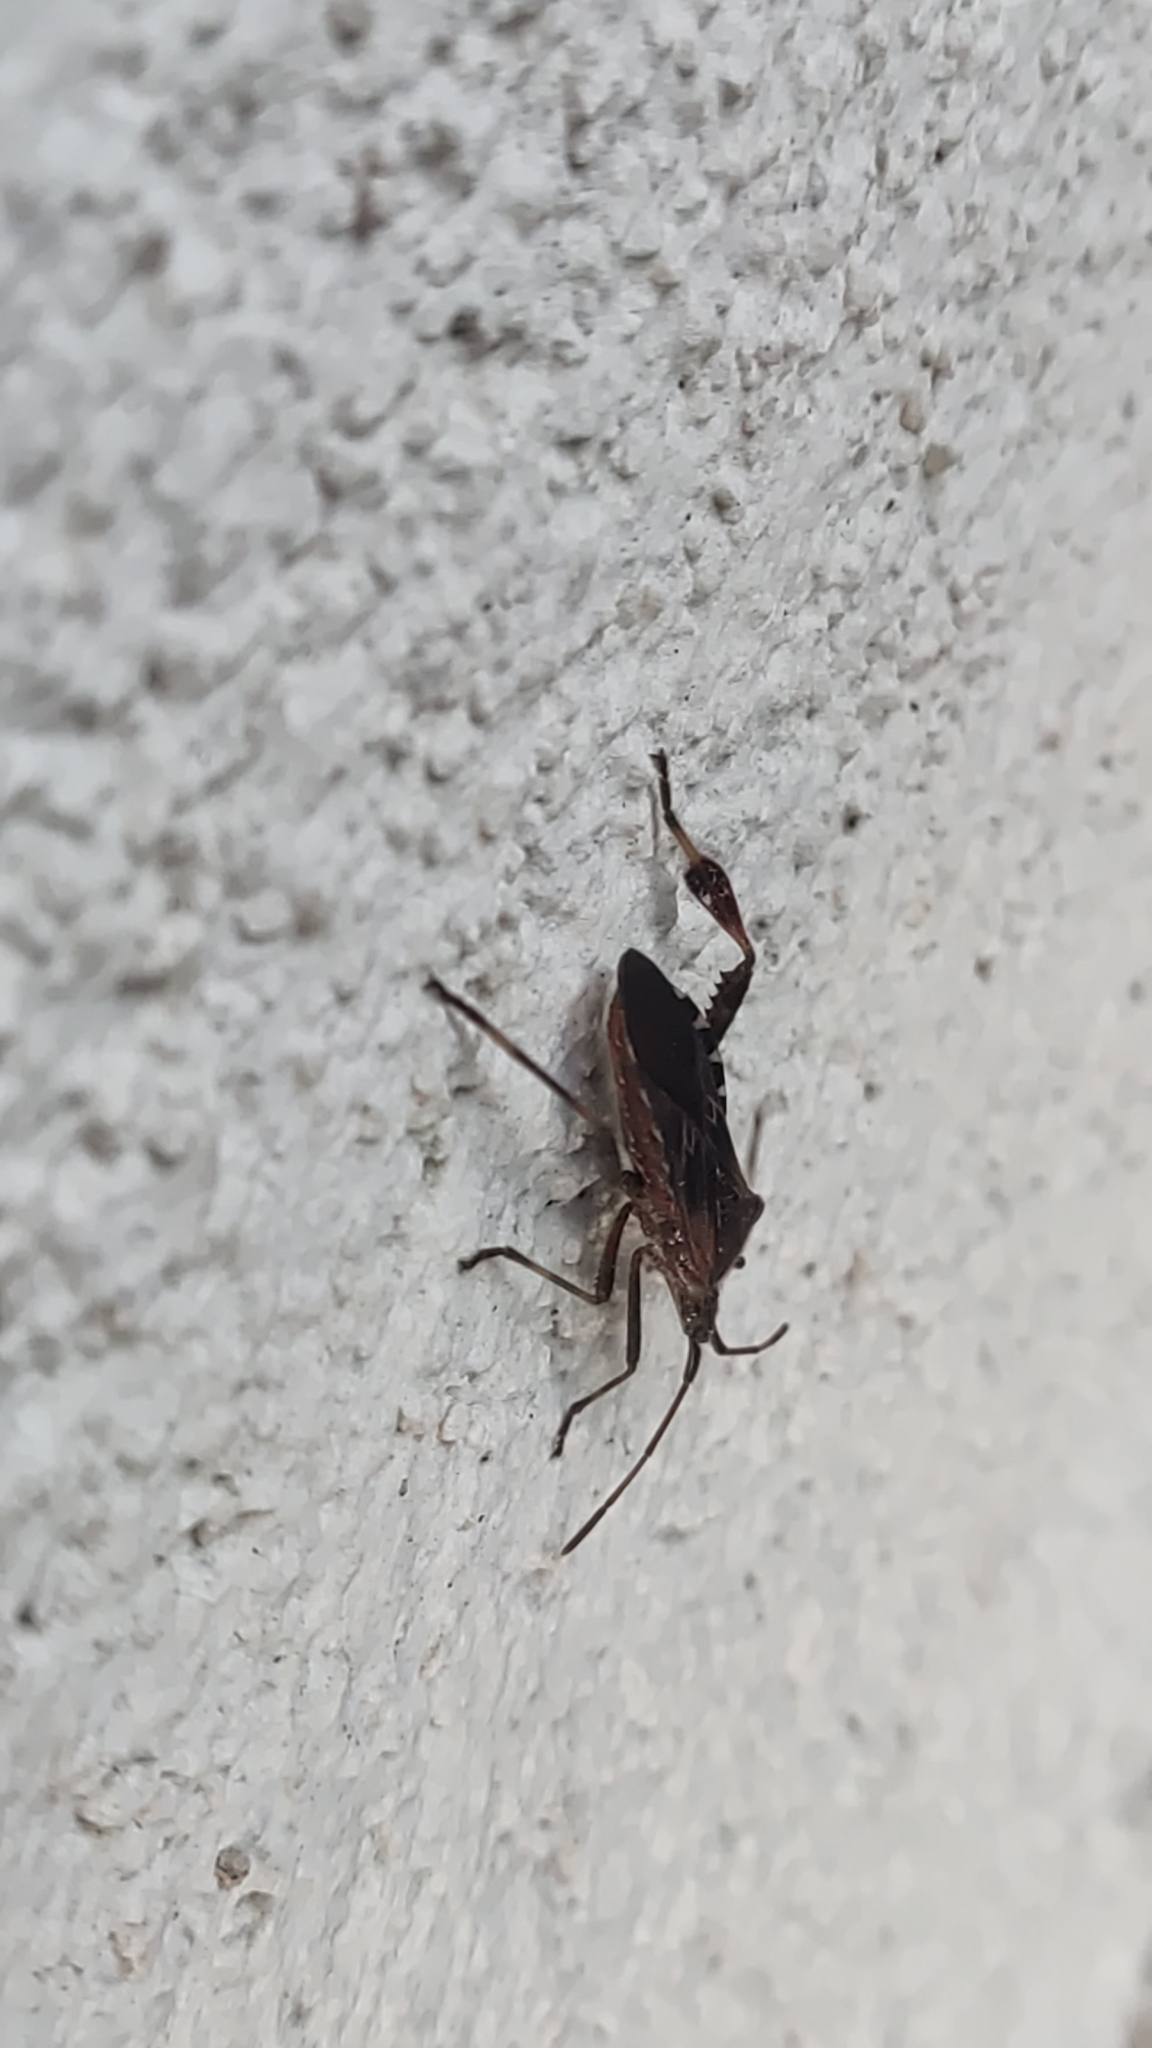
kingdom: Animalia
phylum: Arthropoda
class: Insecta
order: Hemiptera
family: Coreidae
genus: Leptoglossus
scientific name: Leptoglossus occidentalis
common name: Western conifer-seed bug
